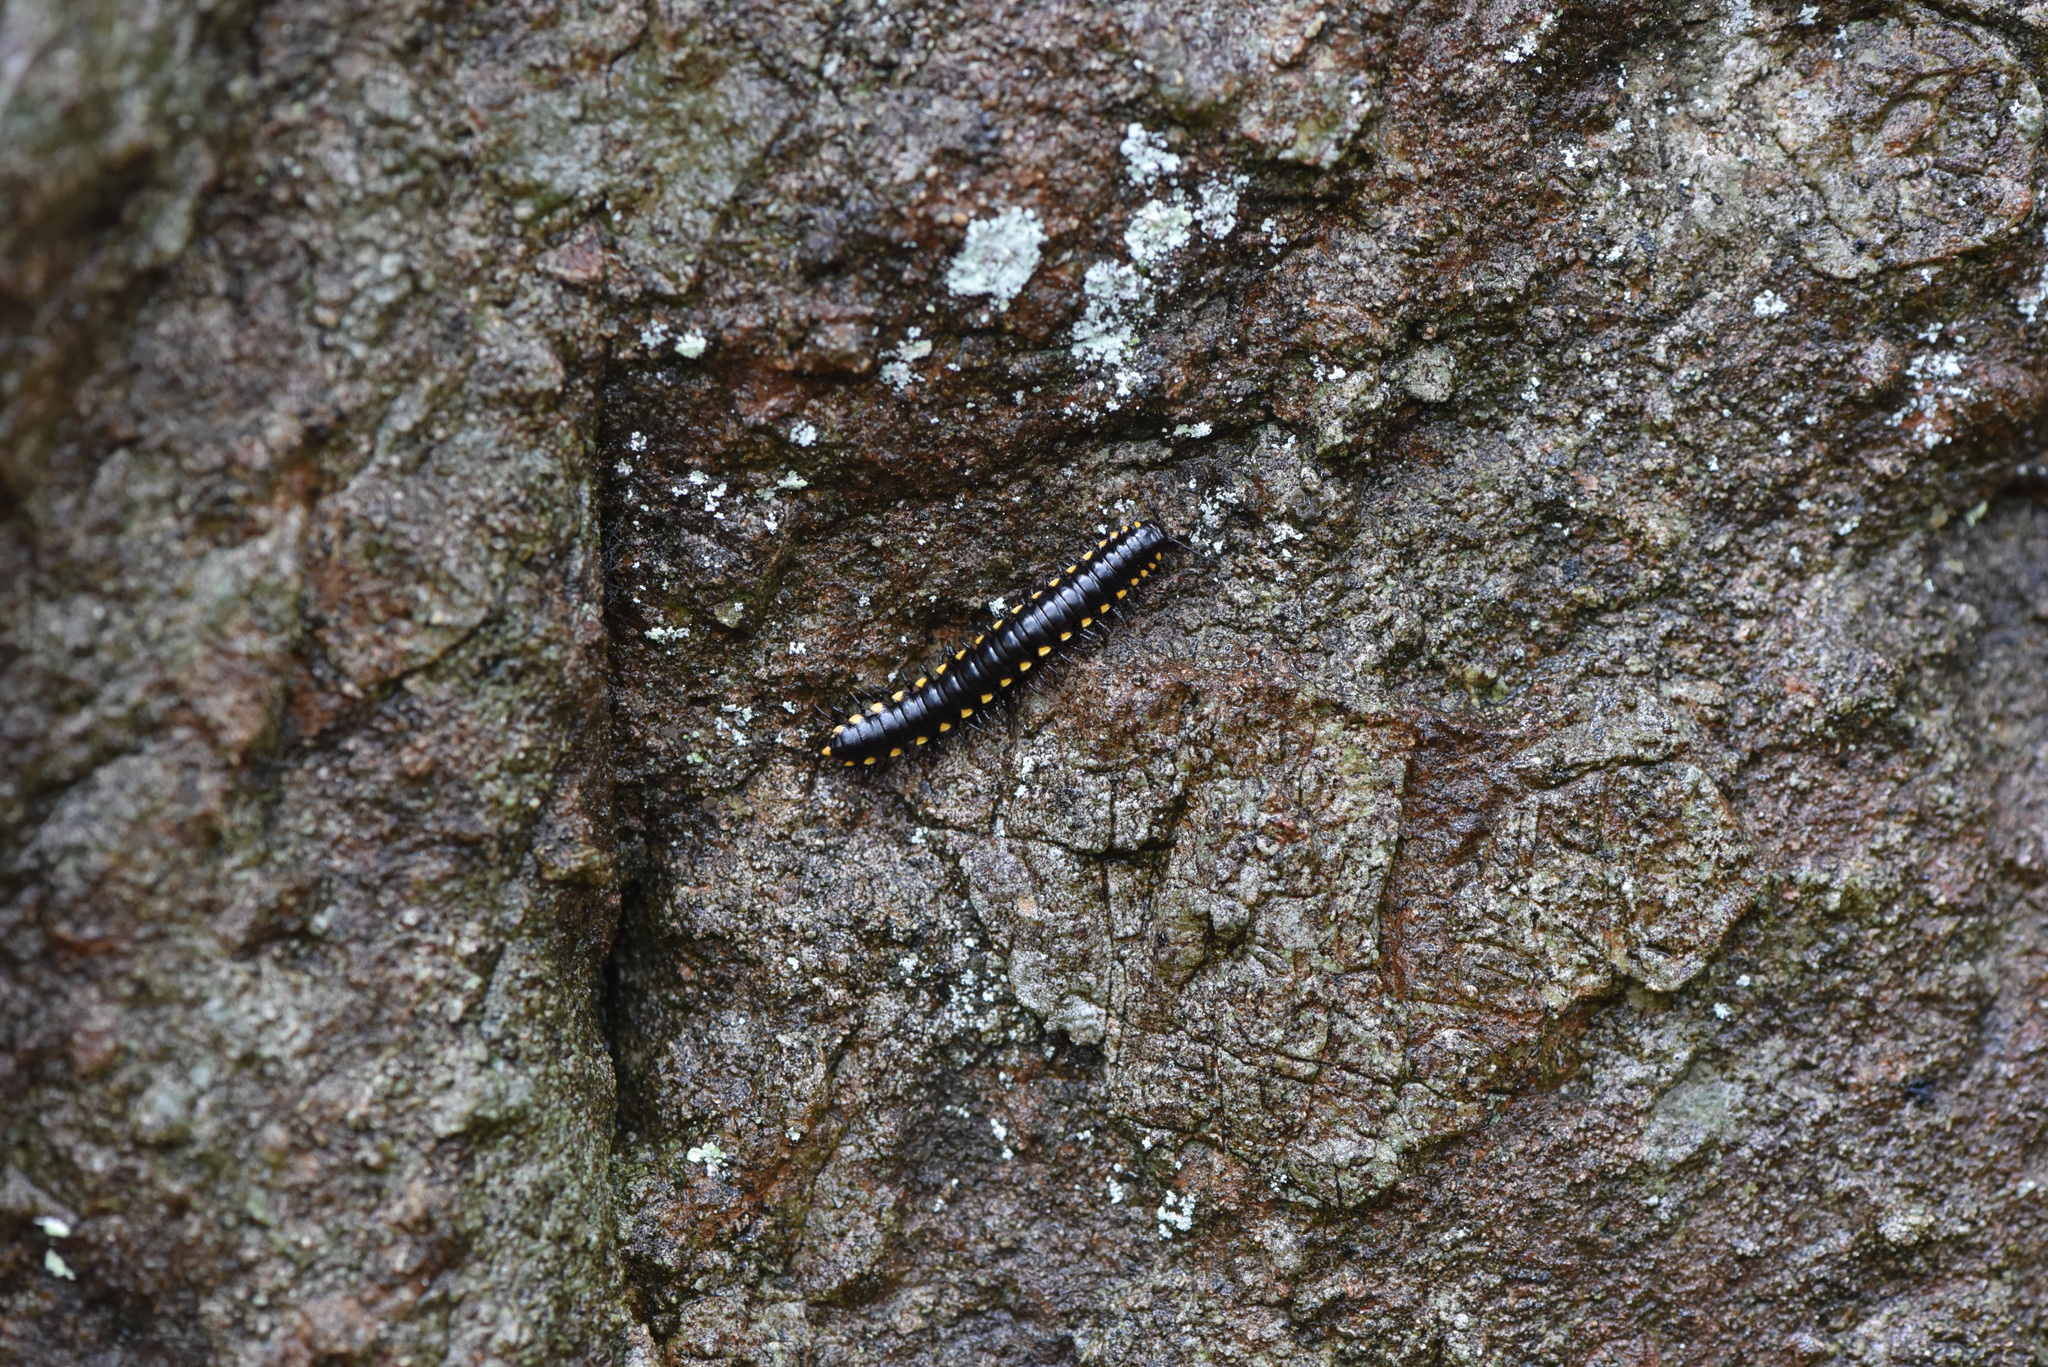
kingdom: Animalia
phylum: Arthropoda
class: Diplopoda
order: Polydesmida
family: Xystodesmidae
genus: Harpaphe
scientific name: Harpaphe haydeniana
